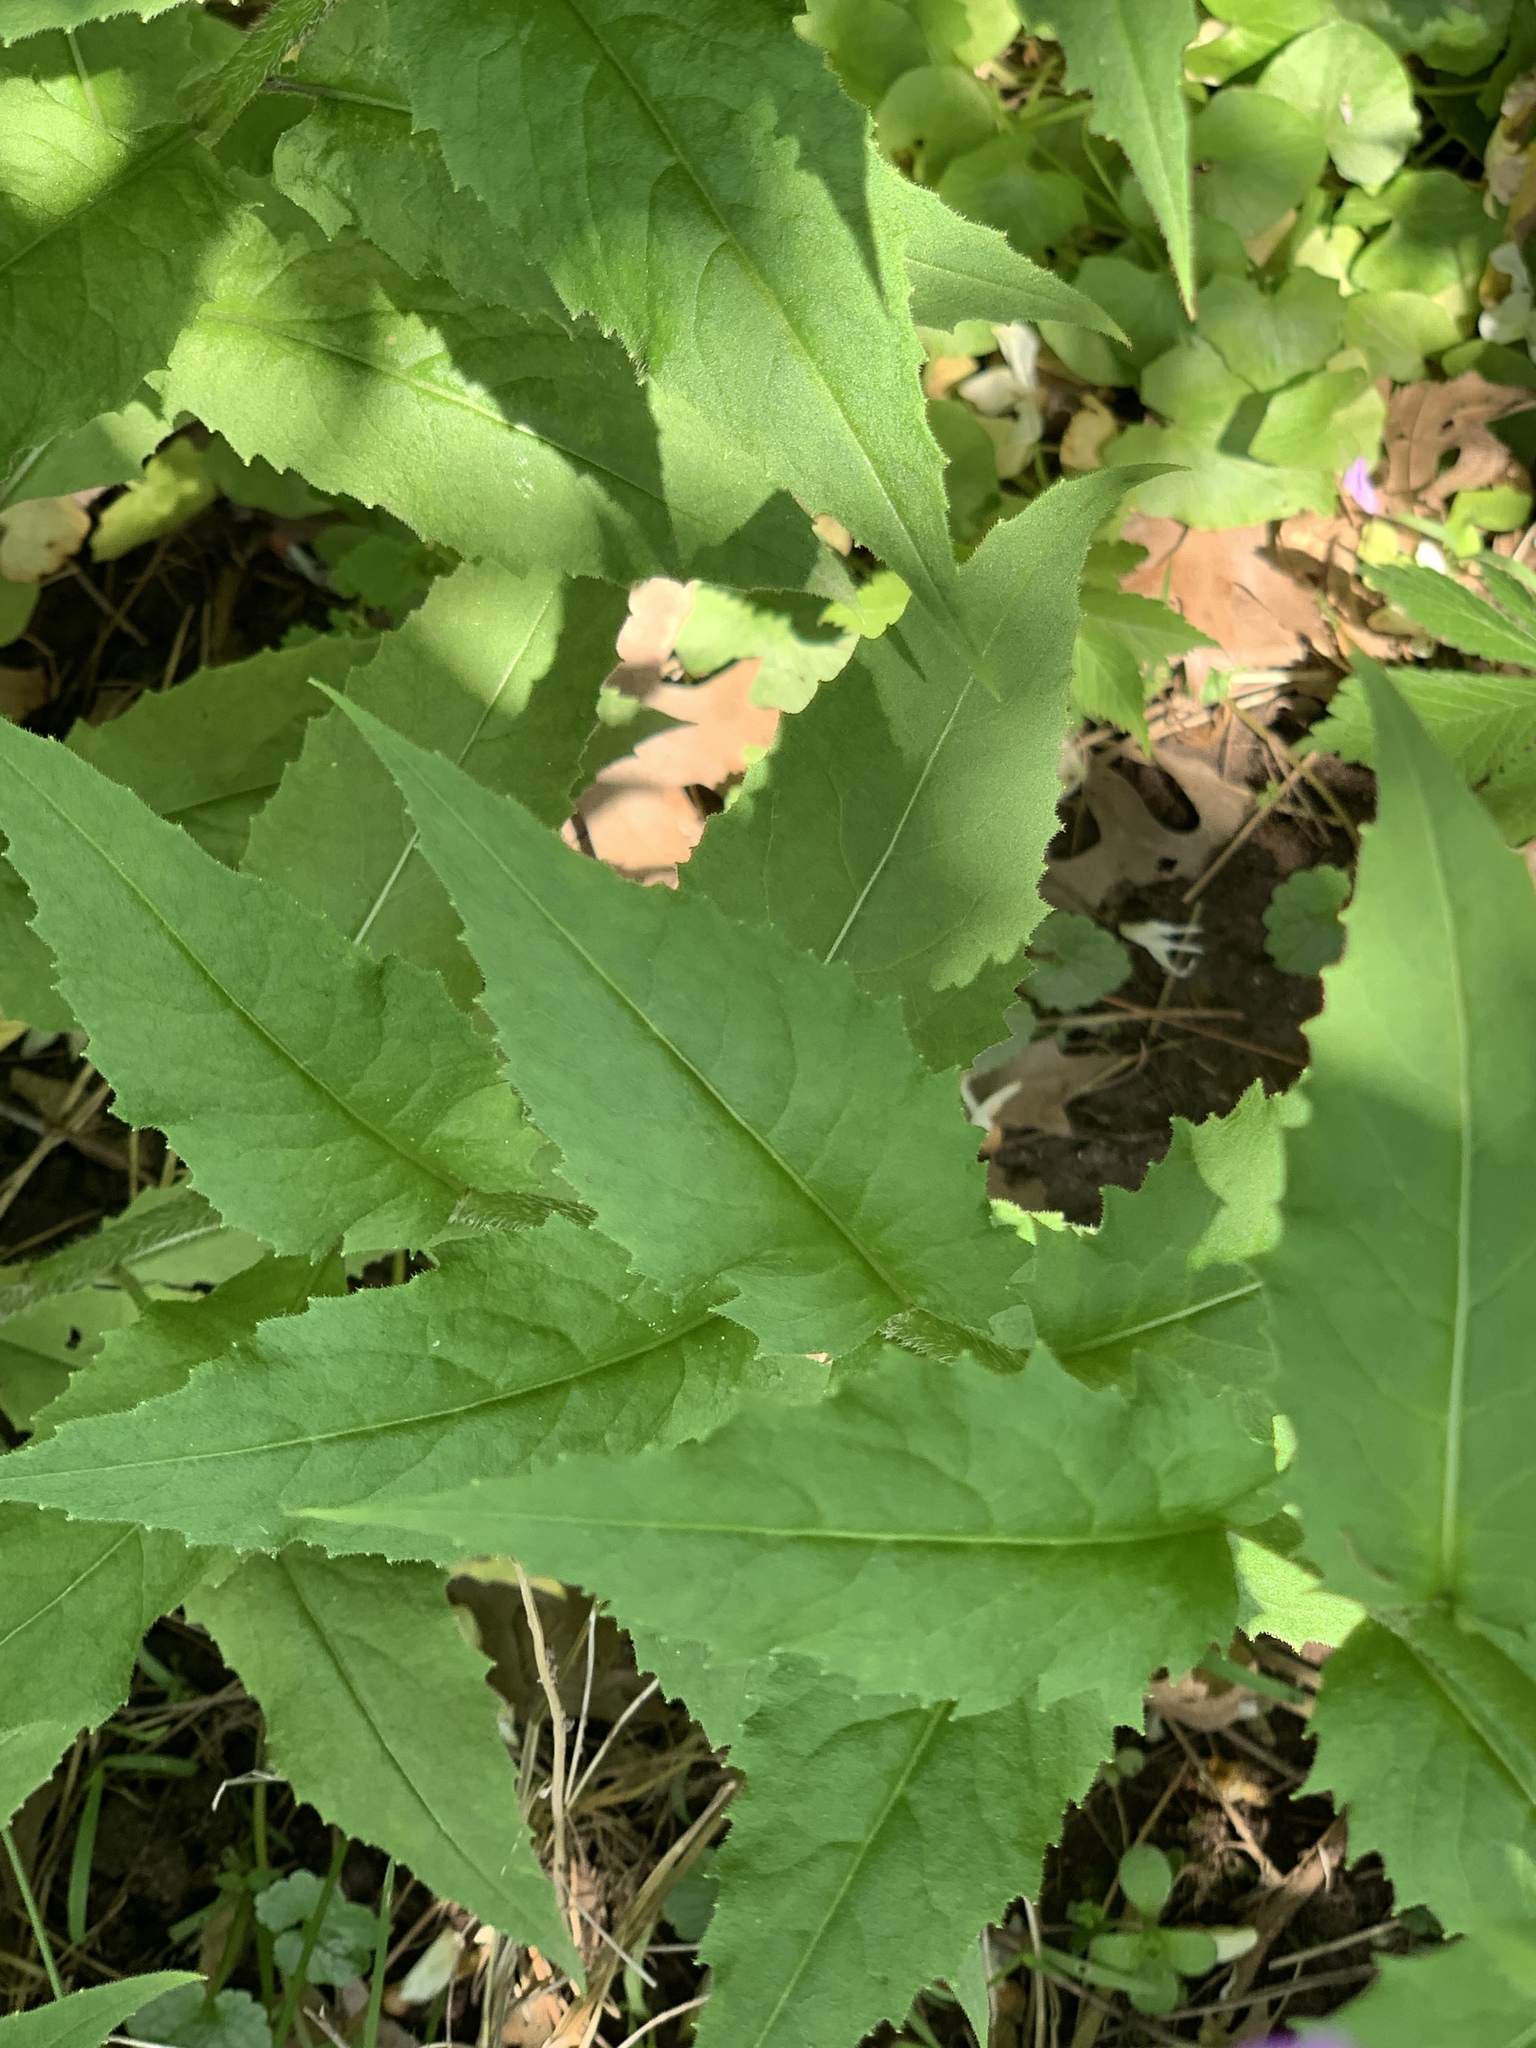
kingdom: Plantae
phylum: Tracheophyta
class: Magnoliopsida
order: Brassicales
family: Brassicaceae
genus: Hesperis
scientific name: Hesperis matronalis
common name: Dame's-violet
